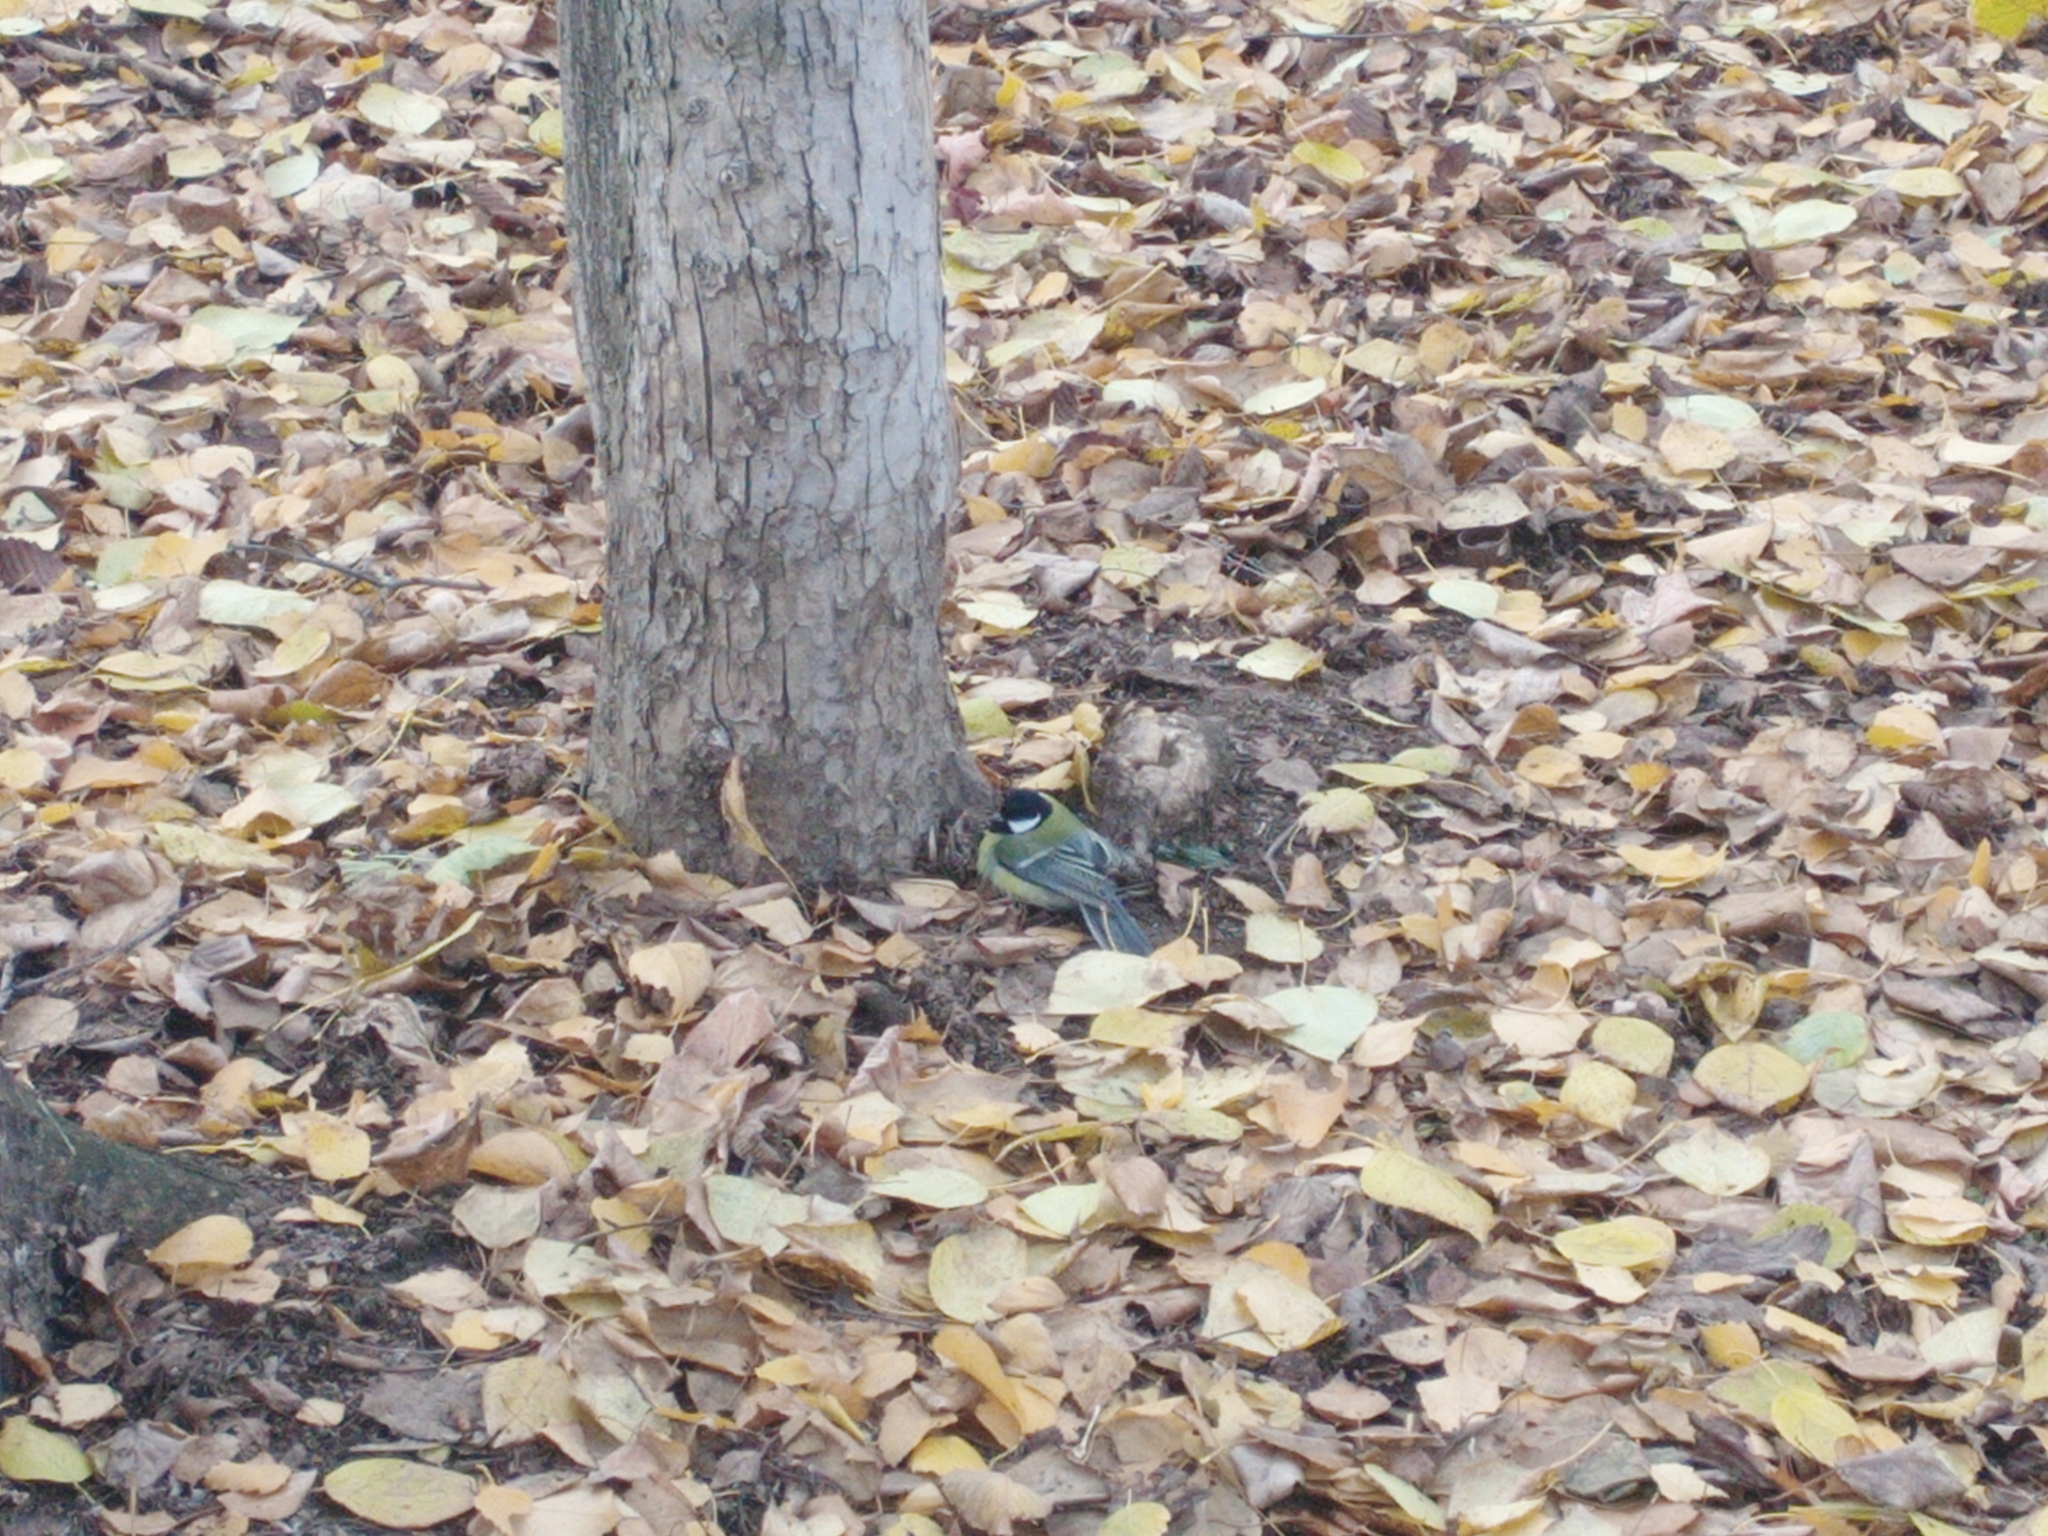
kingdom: Animalia
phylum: Chordata
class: Aves
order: Passeriformes
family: Paridae
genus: Parus
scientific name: Parus major
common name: Great tit
